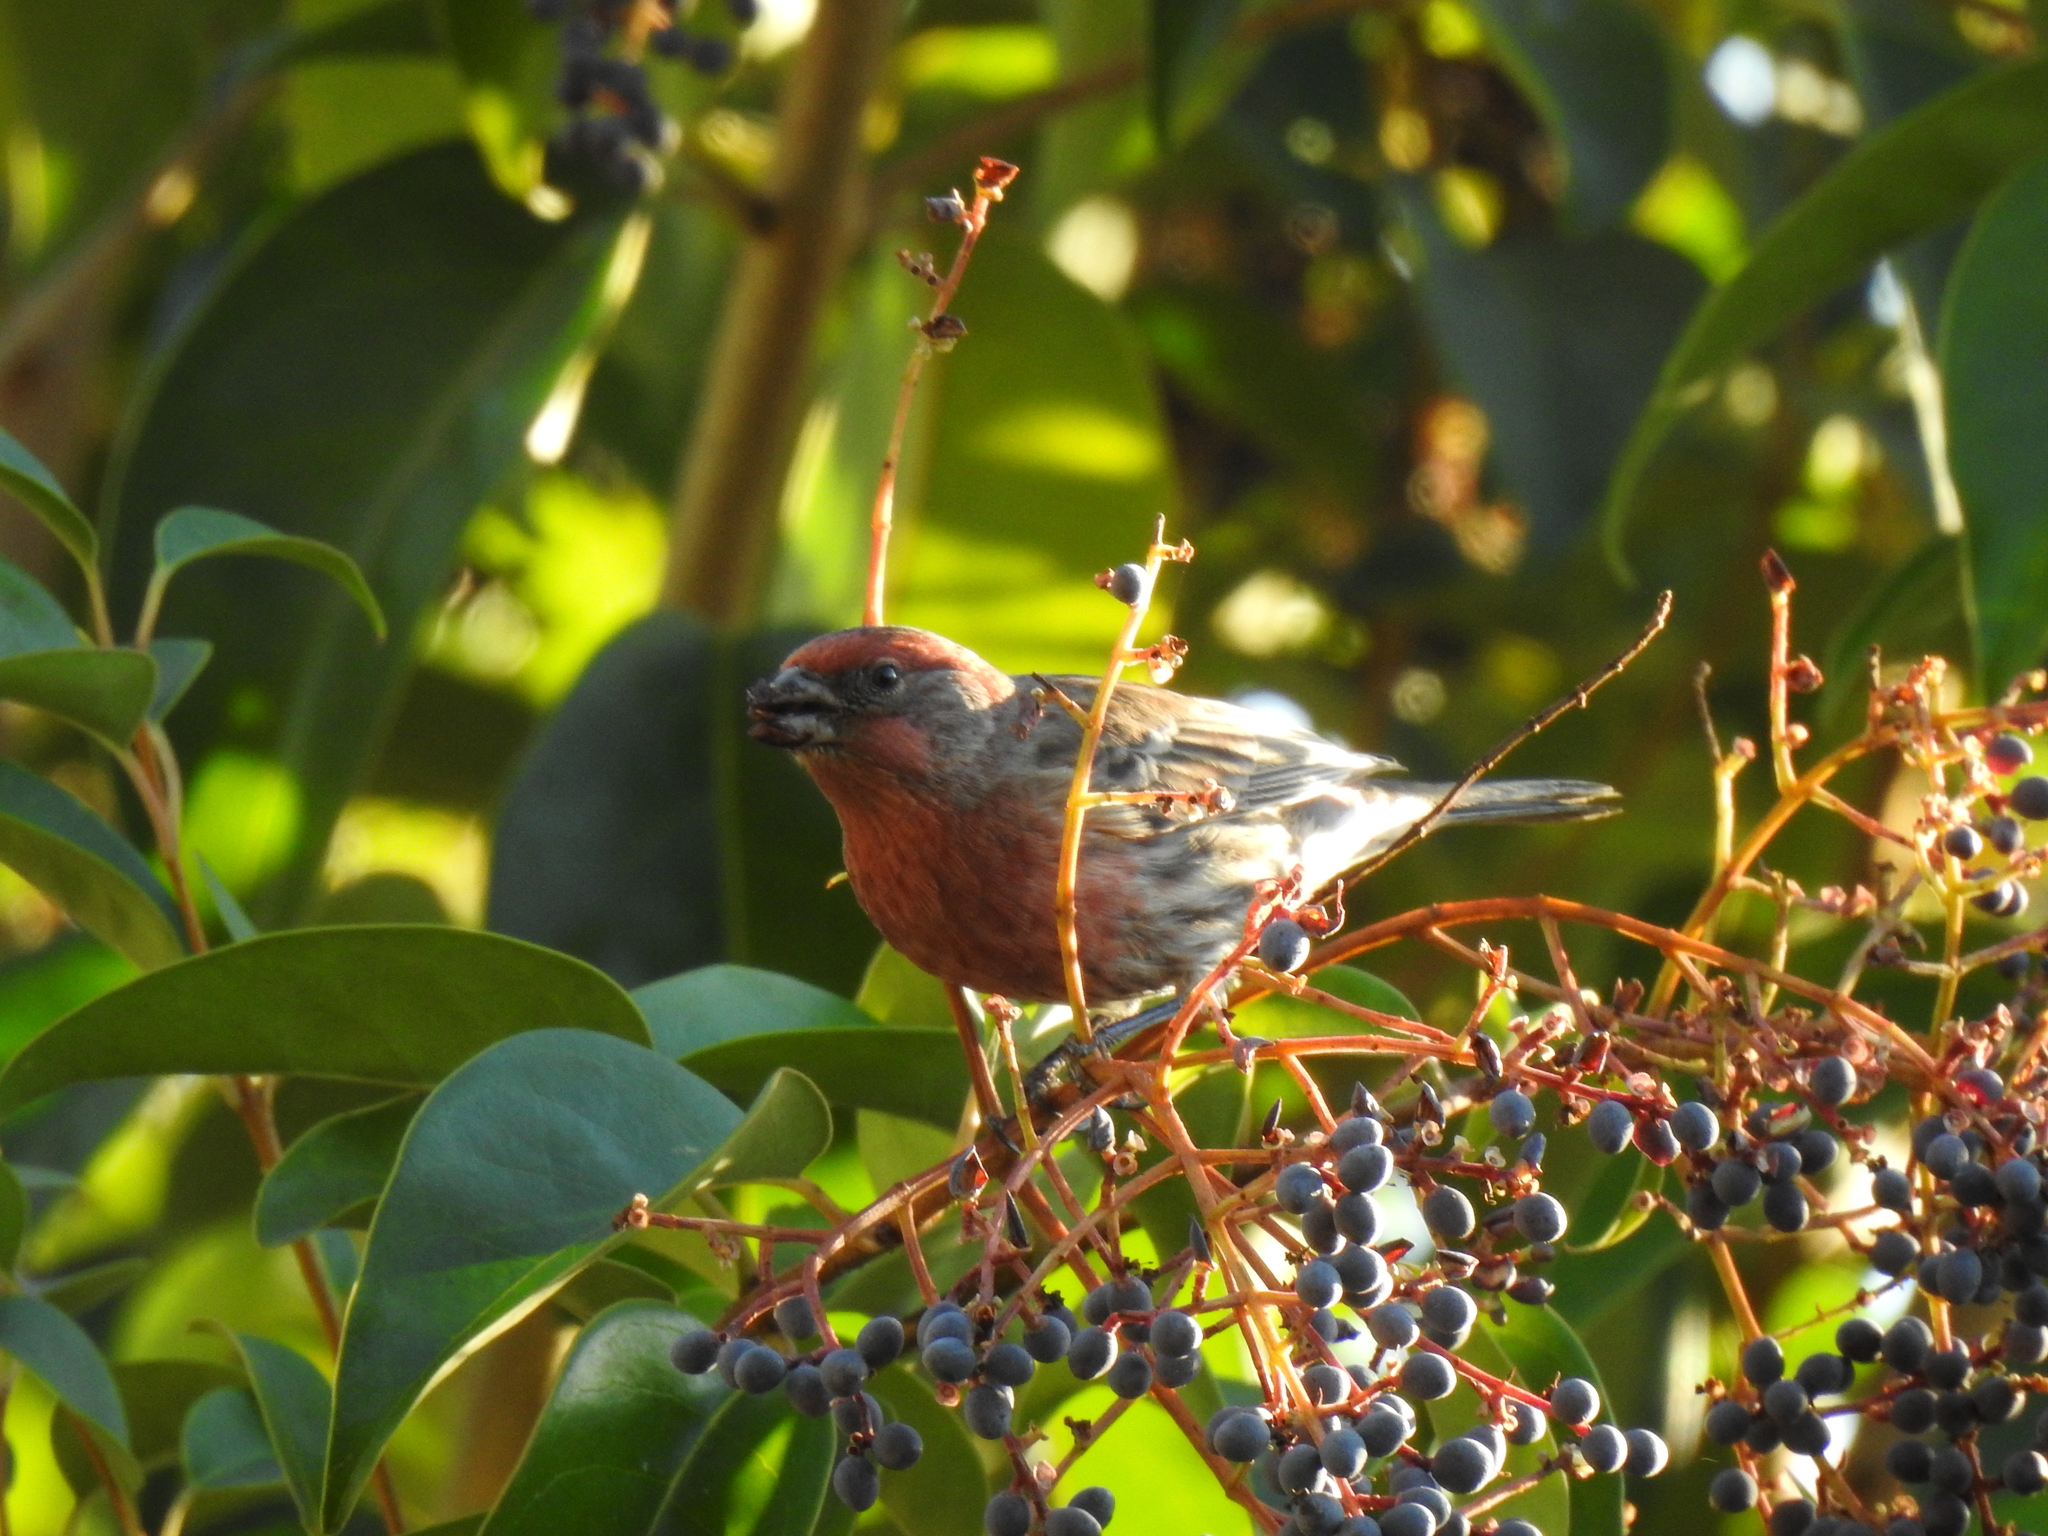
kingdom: Animalia
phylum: Chordata
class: Aves
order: Passeriformes
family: Fringillidae
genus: Haemorhous
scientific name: Haemorhous mexicanus
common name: House finch
